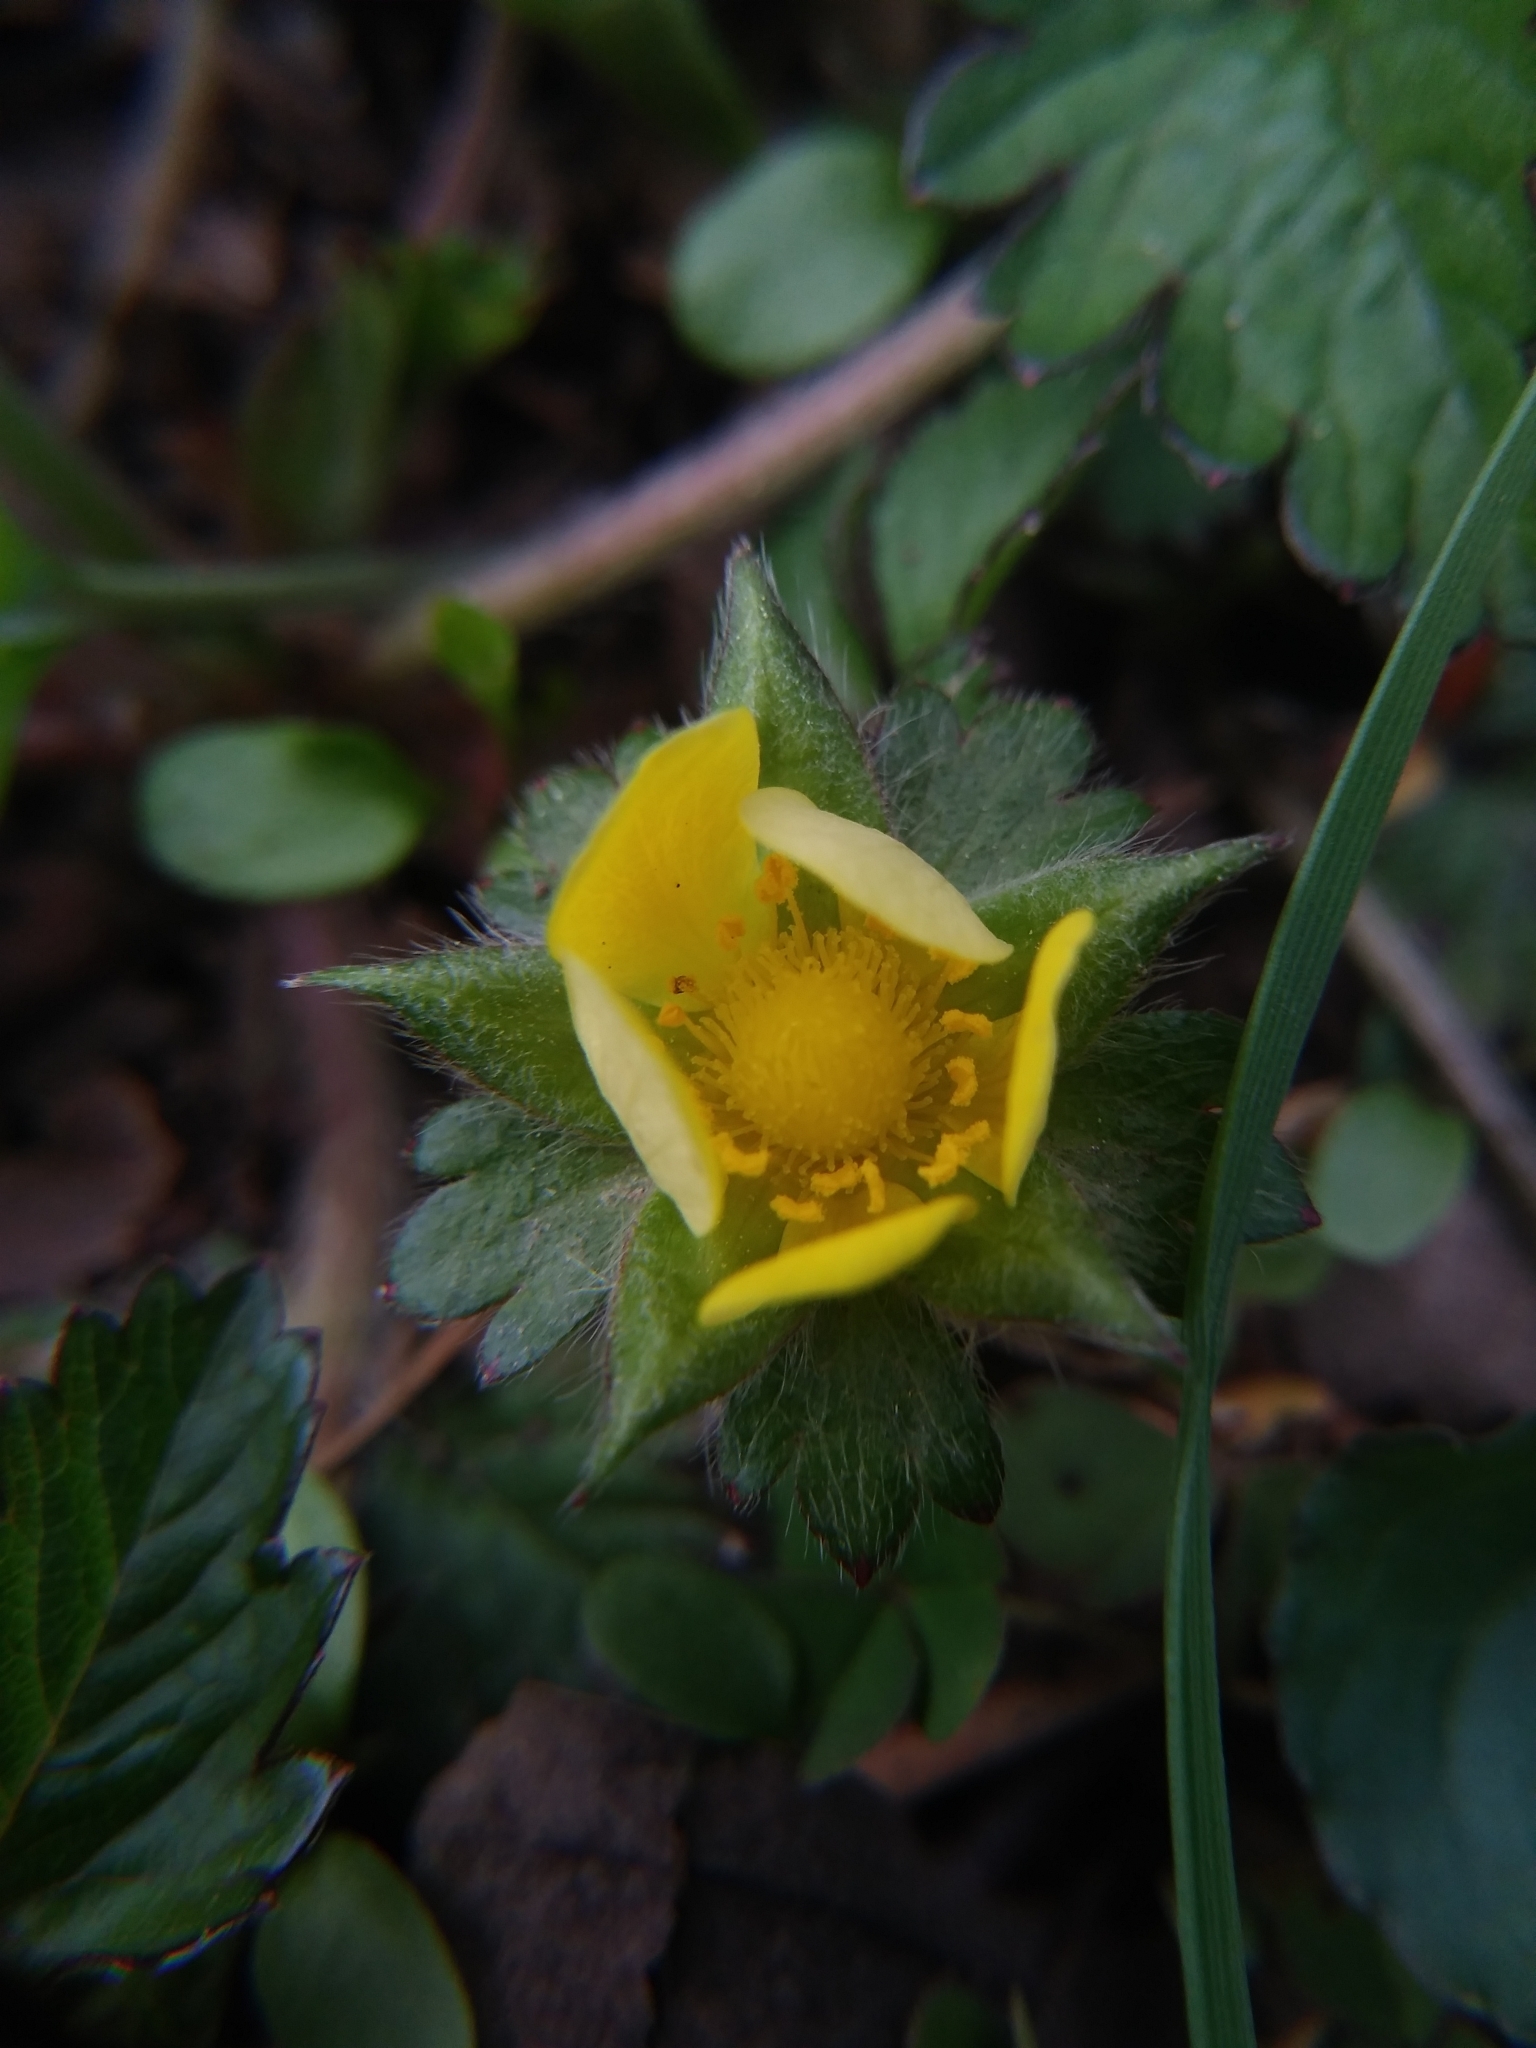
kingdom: Plantae
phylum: Tracheophyta
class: Magnoliopsida
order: Rosales
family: Rosaceae
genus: Potentilla
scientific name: Potentilla indica
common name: Yellow-flowered strawberry
